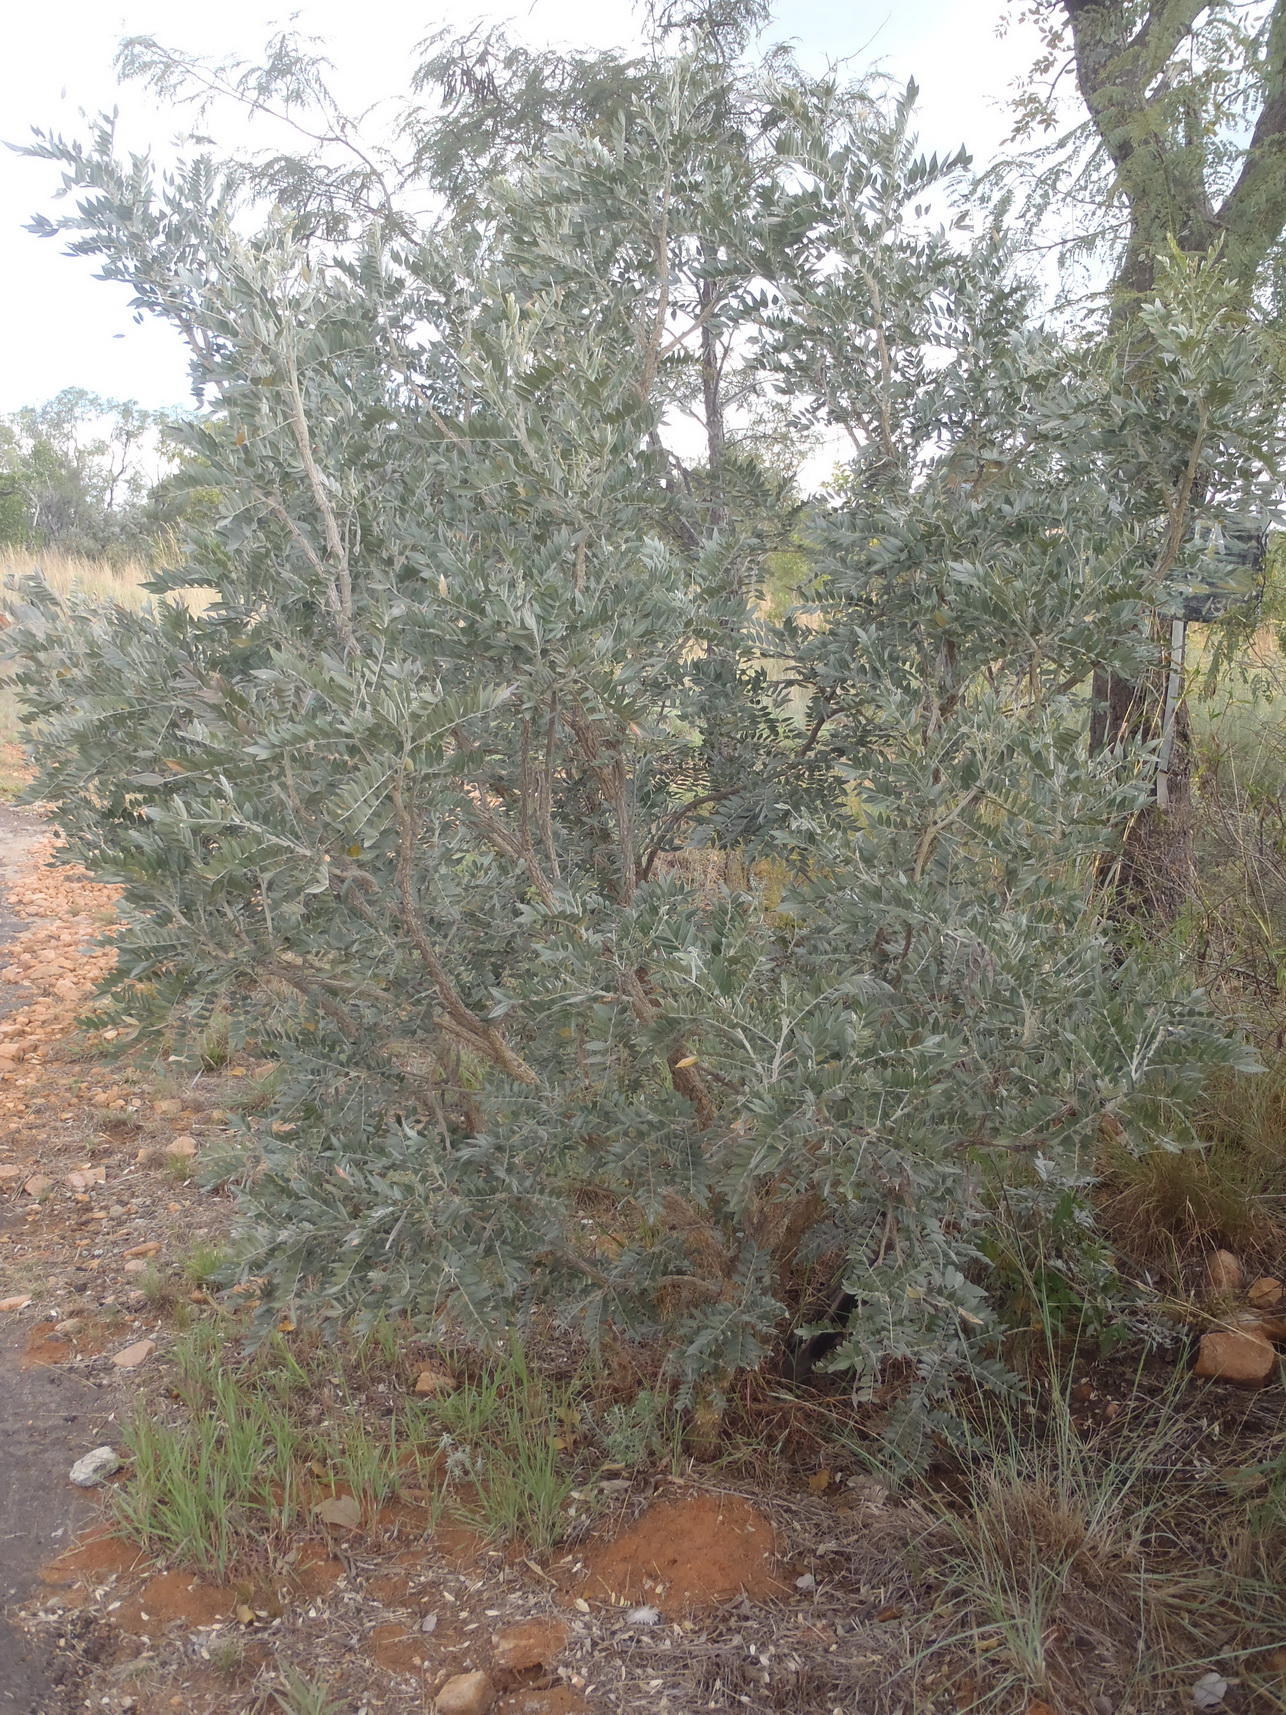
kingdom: Plantae
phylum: Tracheophyta
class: Magnoliopsida
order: Fabales
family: Fabaceae
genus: Mundulea
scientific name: Mundulea sericea
